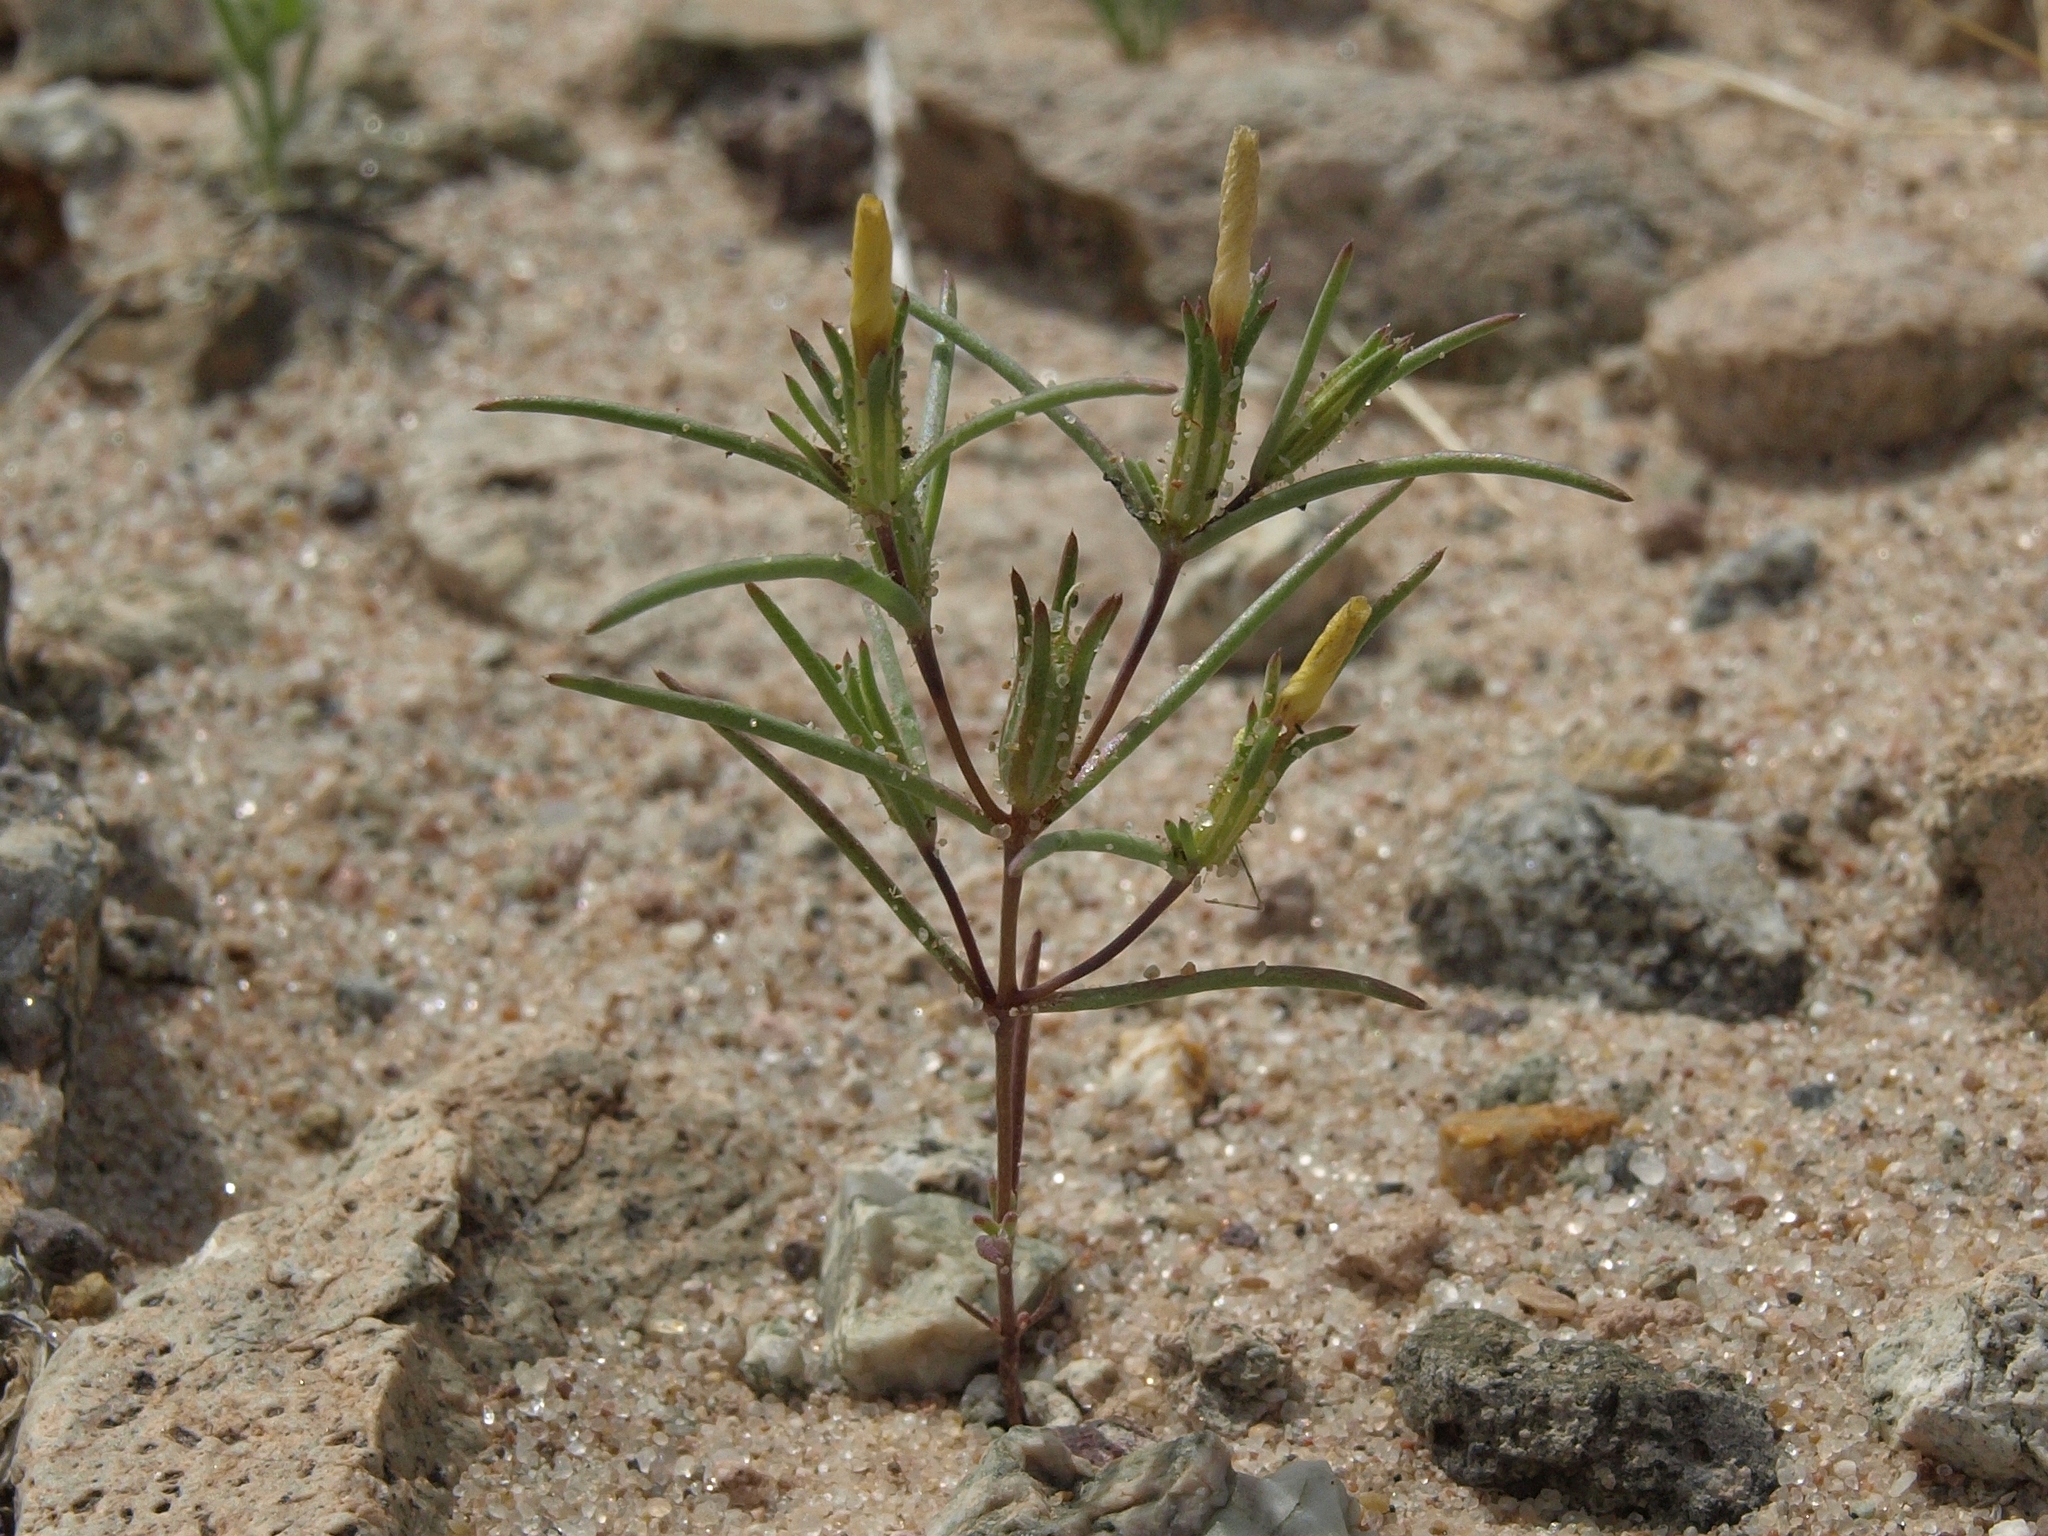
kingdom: Plantae
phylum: Tracheophyta
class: Magnoliopsida
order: Ericales
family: Polemoniaceae
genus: Linanthus
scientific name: Linanthus jonesii
